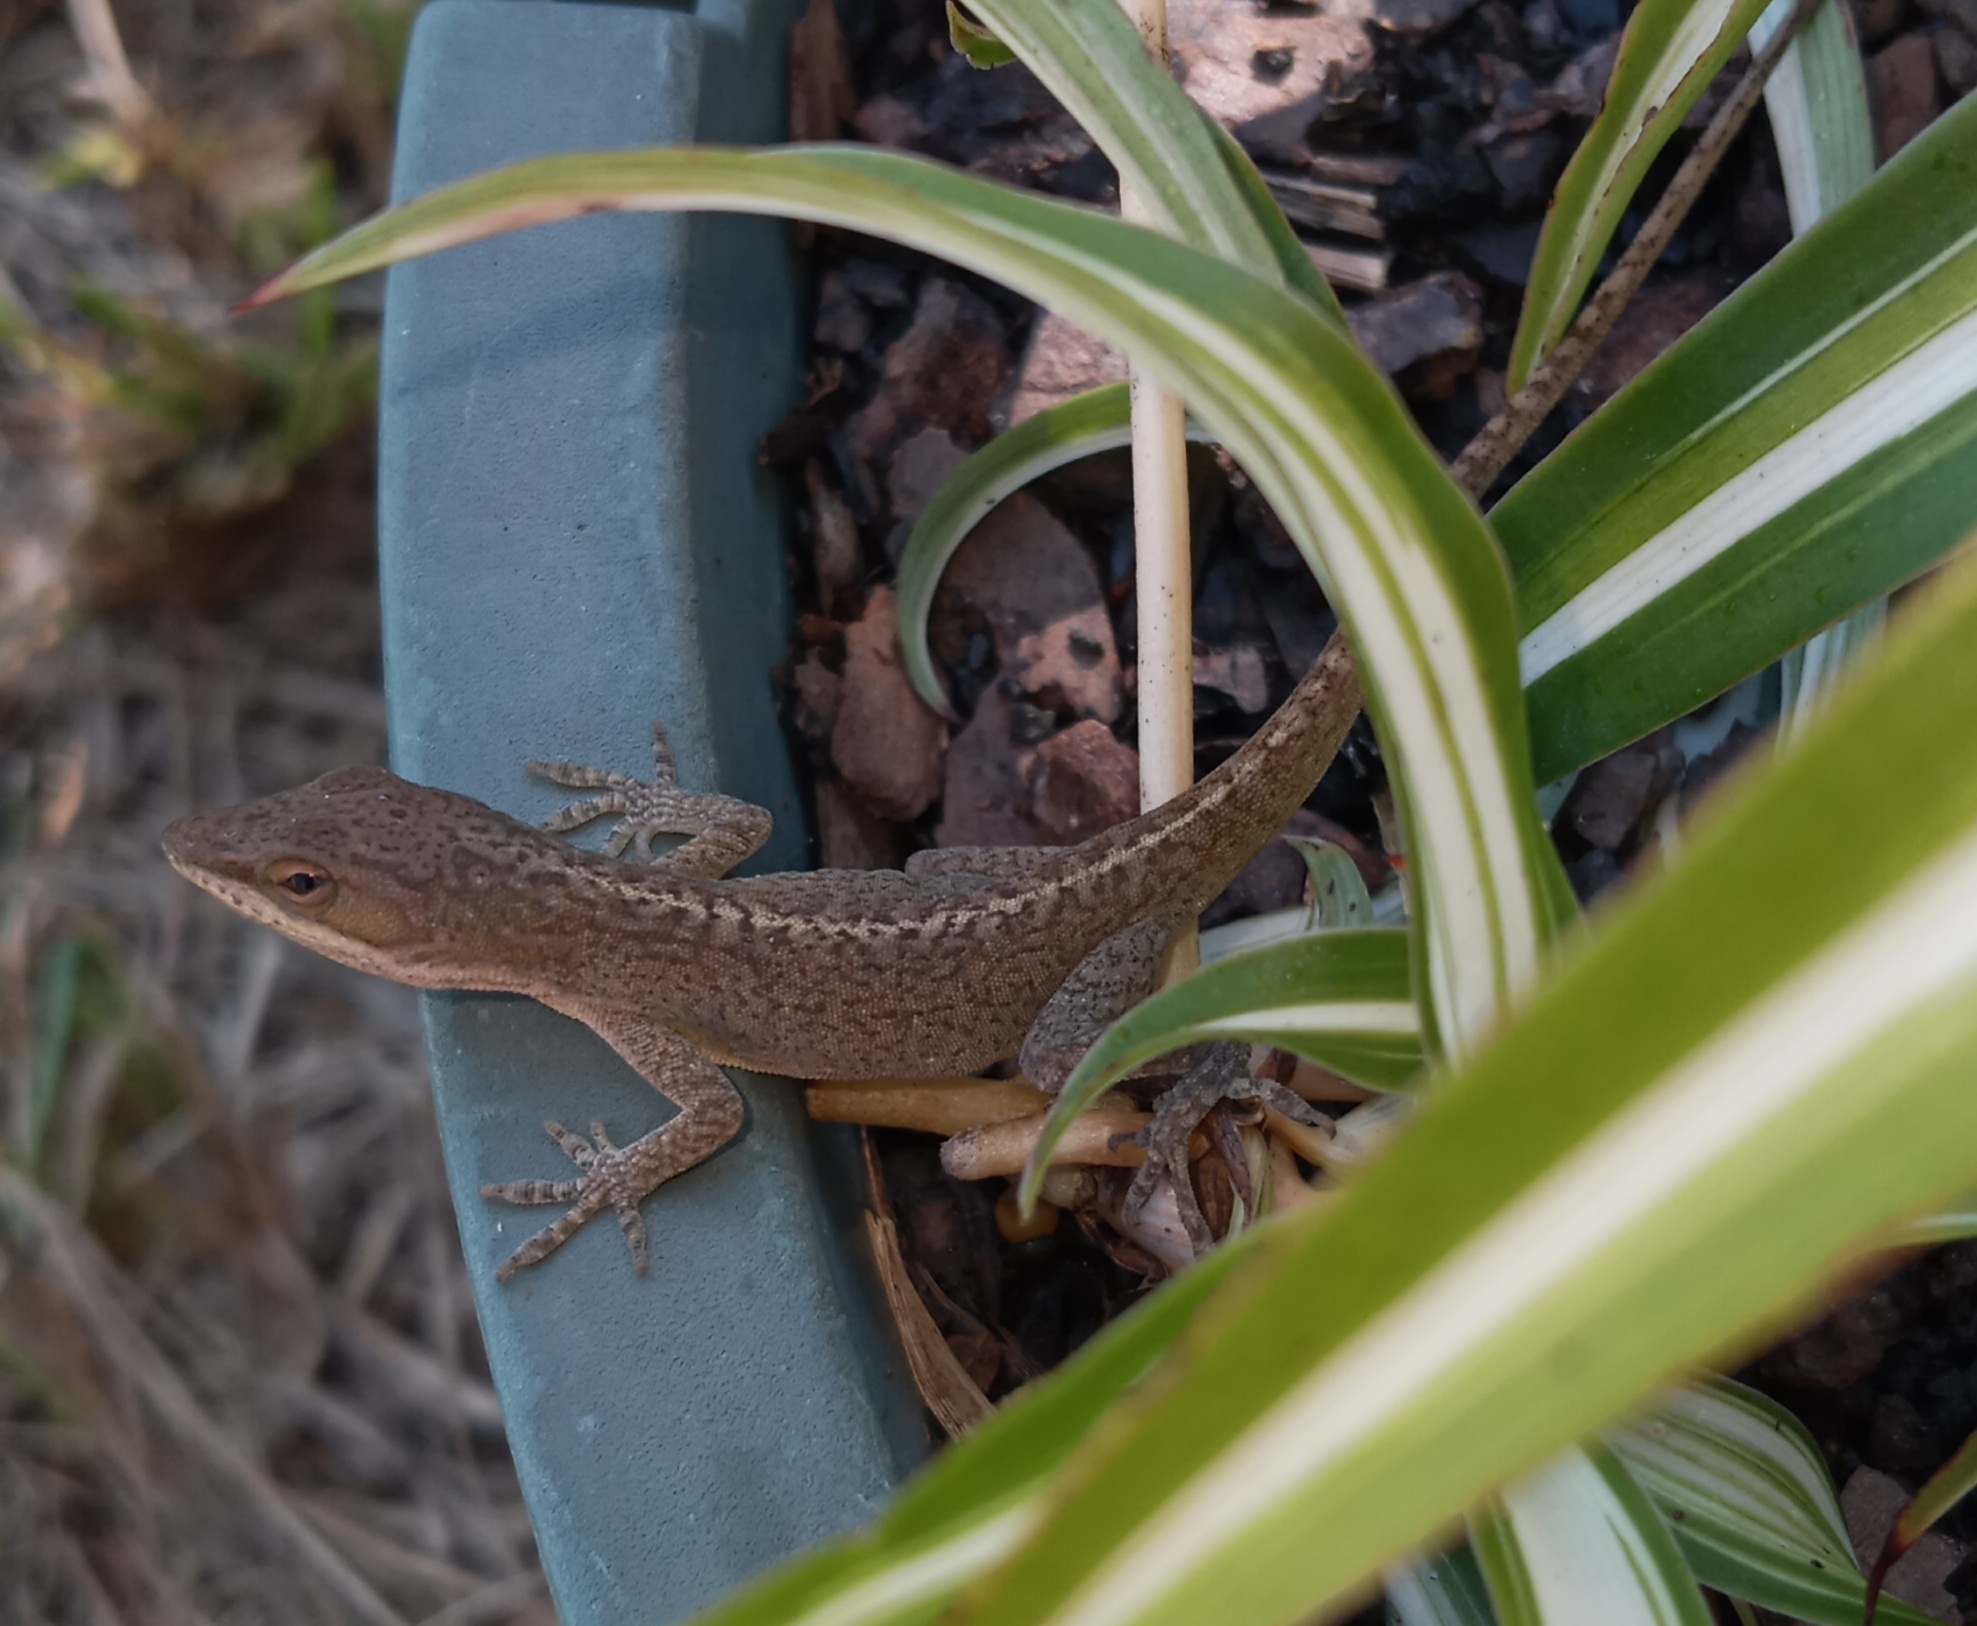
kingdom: Animalia
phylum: Chordata
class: Squamata
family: Dactyloidae
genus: Anolis
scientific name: Anolis carolinensis
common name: Green anole
